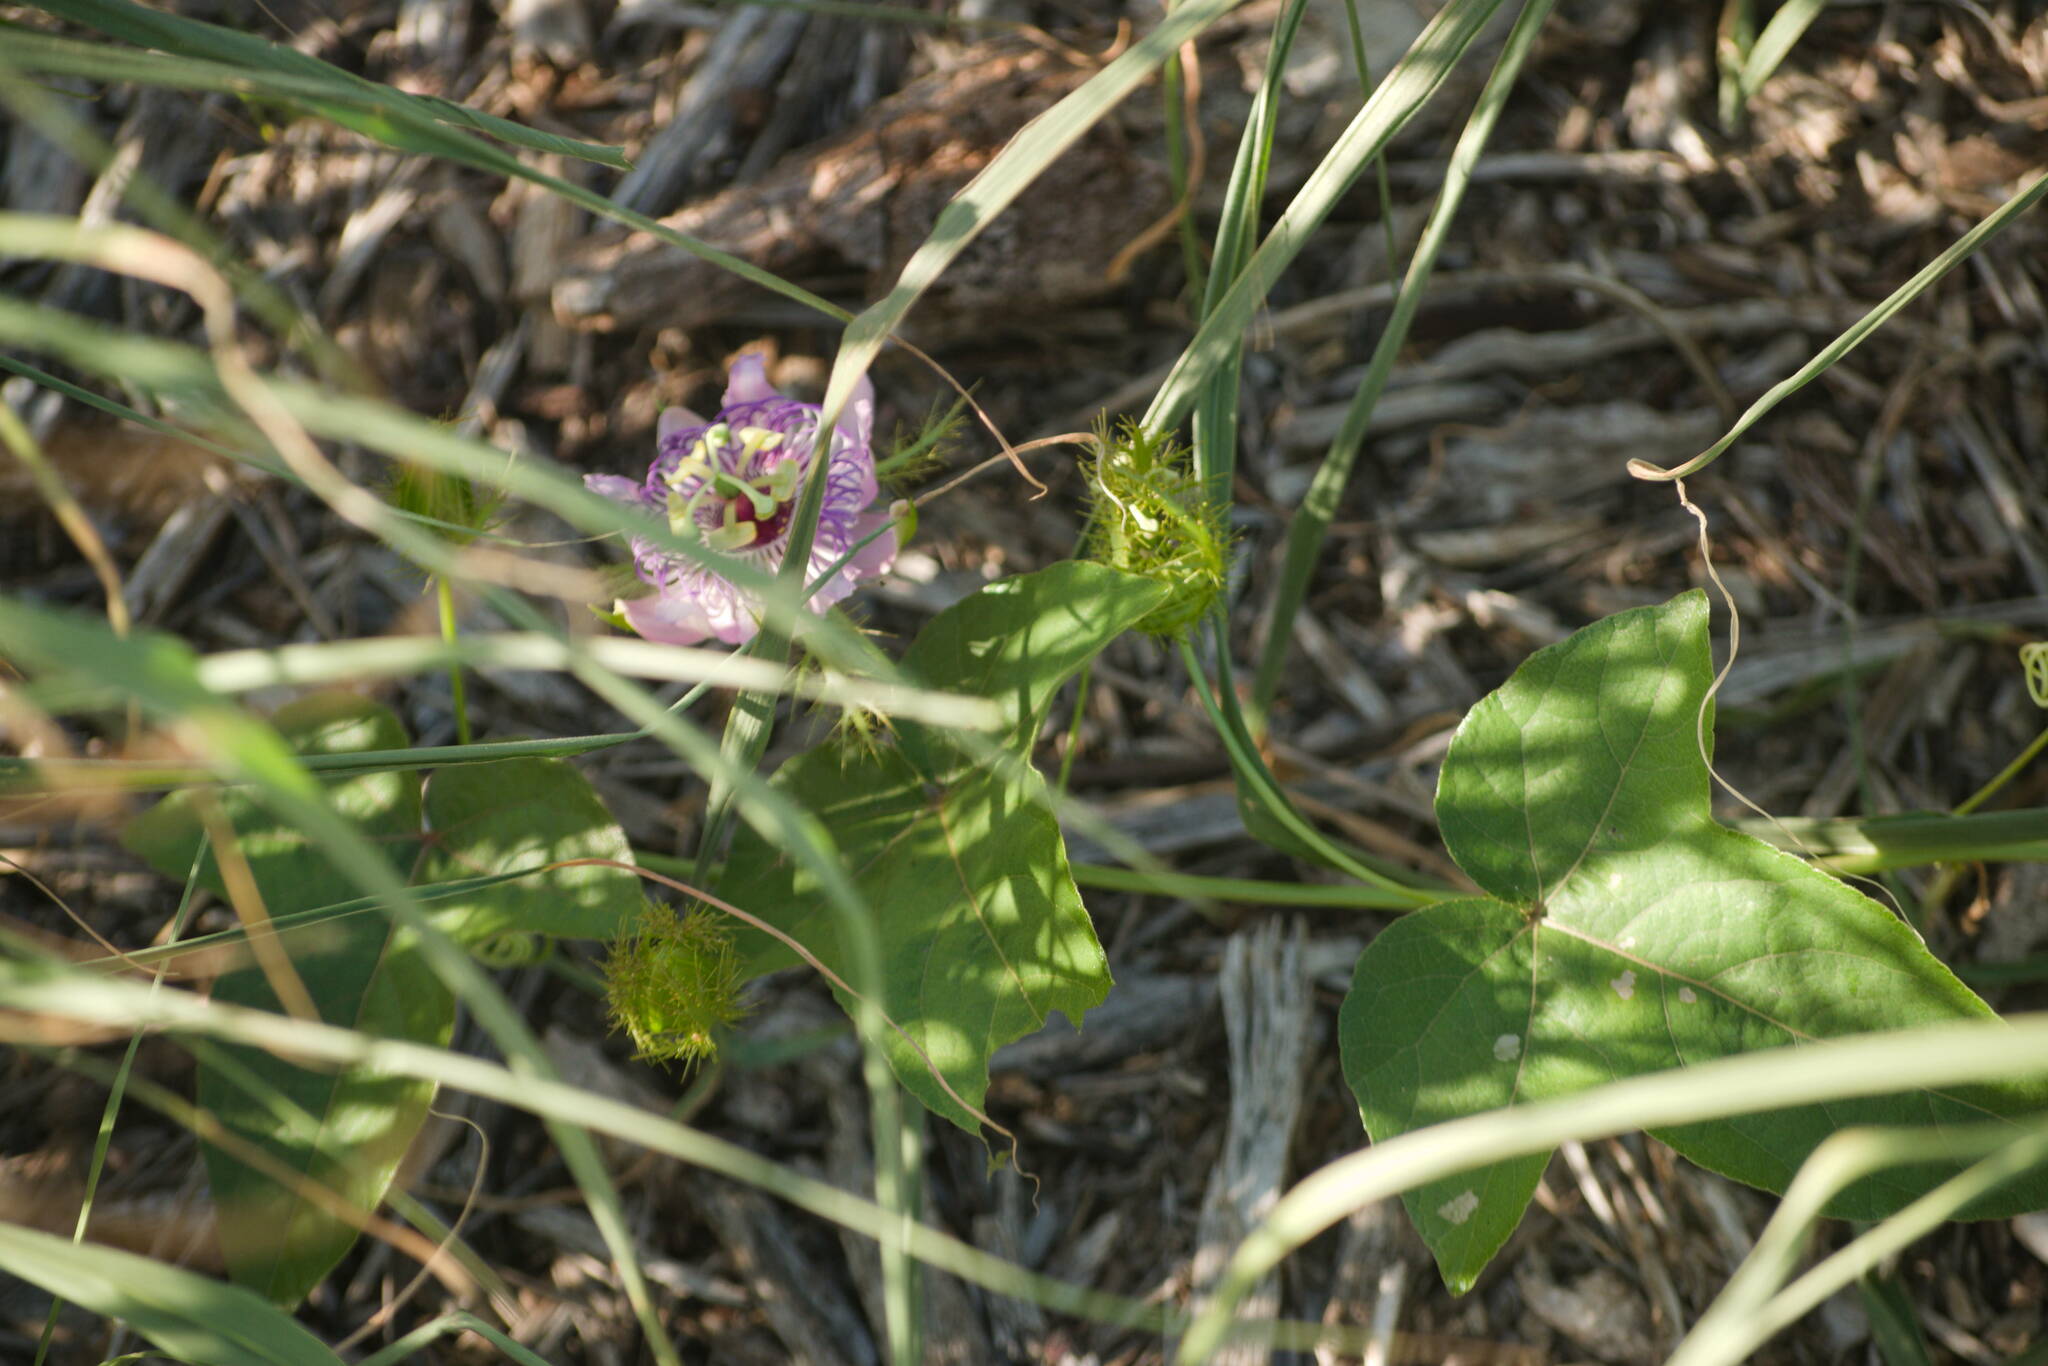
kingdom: Plantae
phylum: Tracheophyta
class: Magnoliopsida
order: Malpighiales
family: Passifloraceae
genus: Passiflora
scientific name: Passiflora foetida
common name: Fetid passionflower
